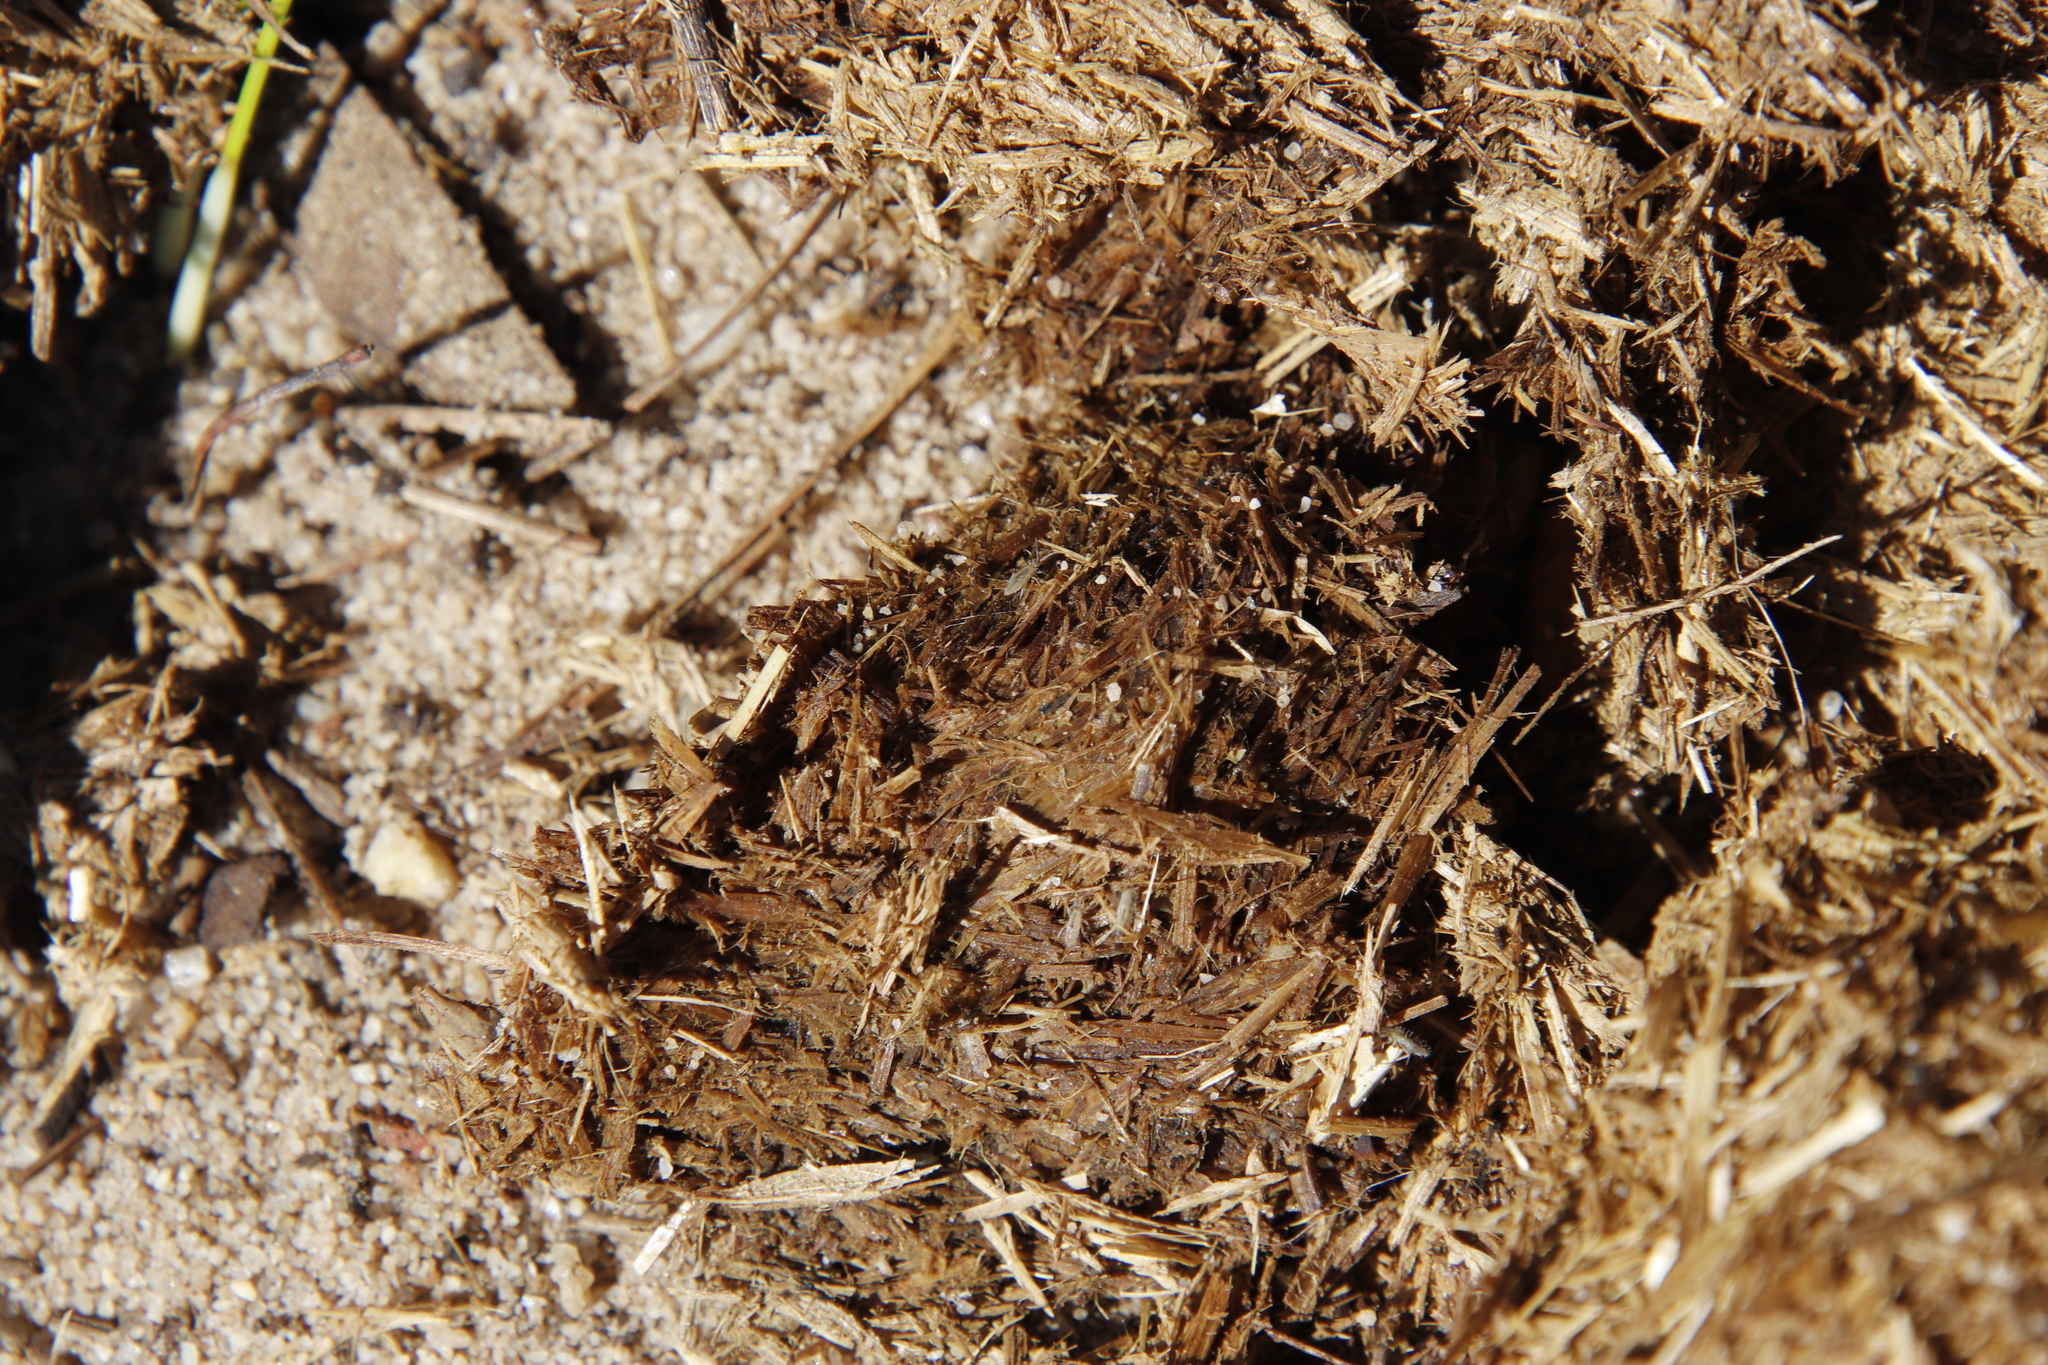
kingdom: Animalia
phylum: Chordata
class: Mammalia
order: Perissodactyla
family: Equidae
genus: Equus
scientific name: Equus caballus
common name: Horse
